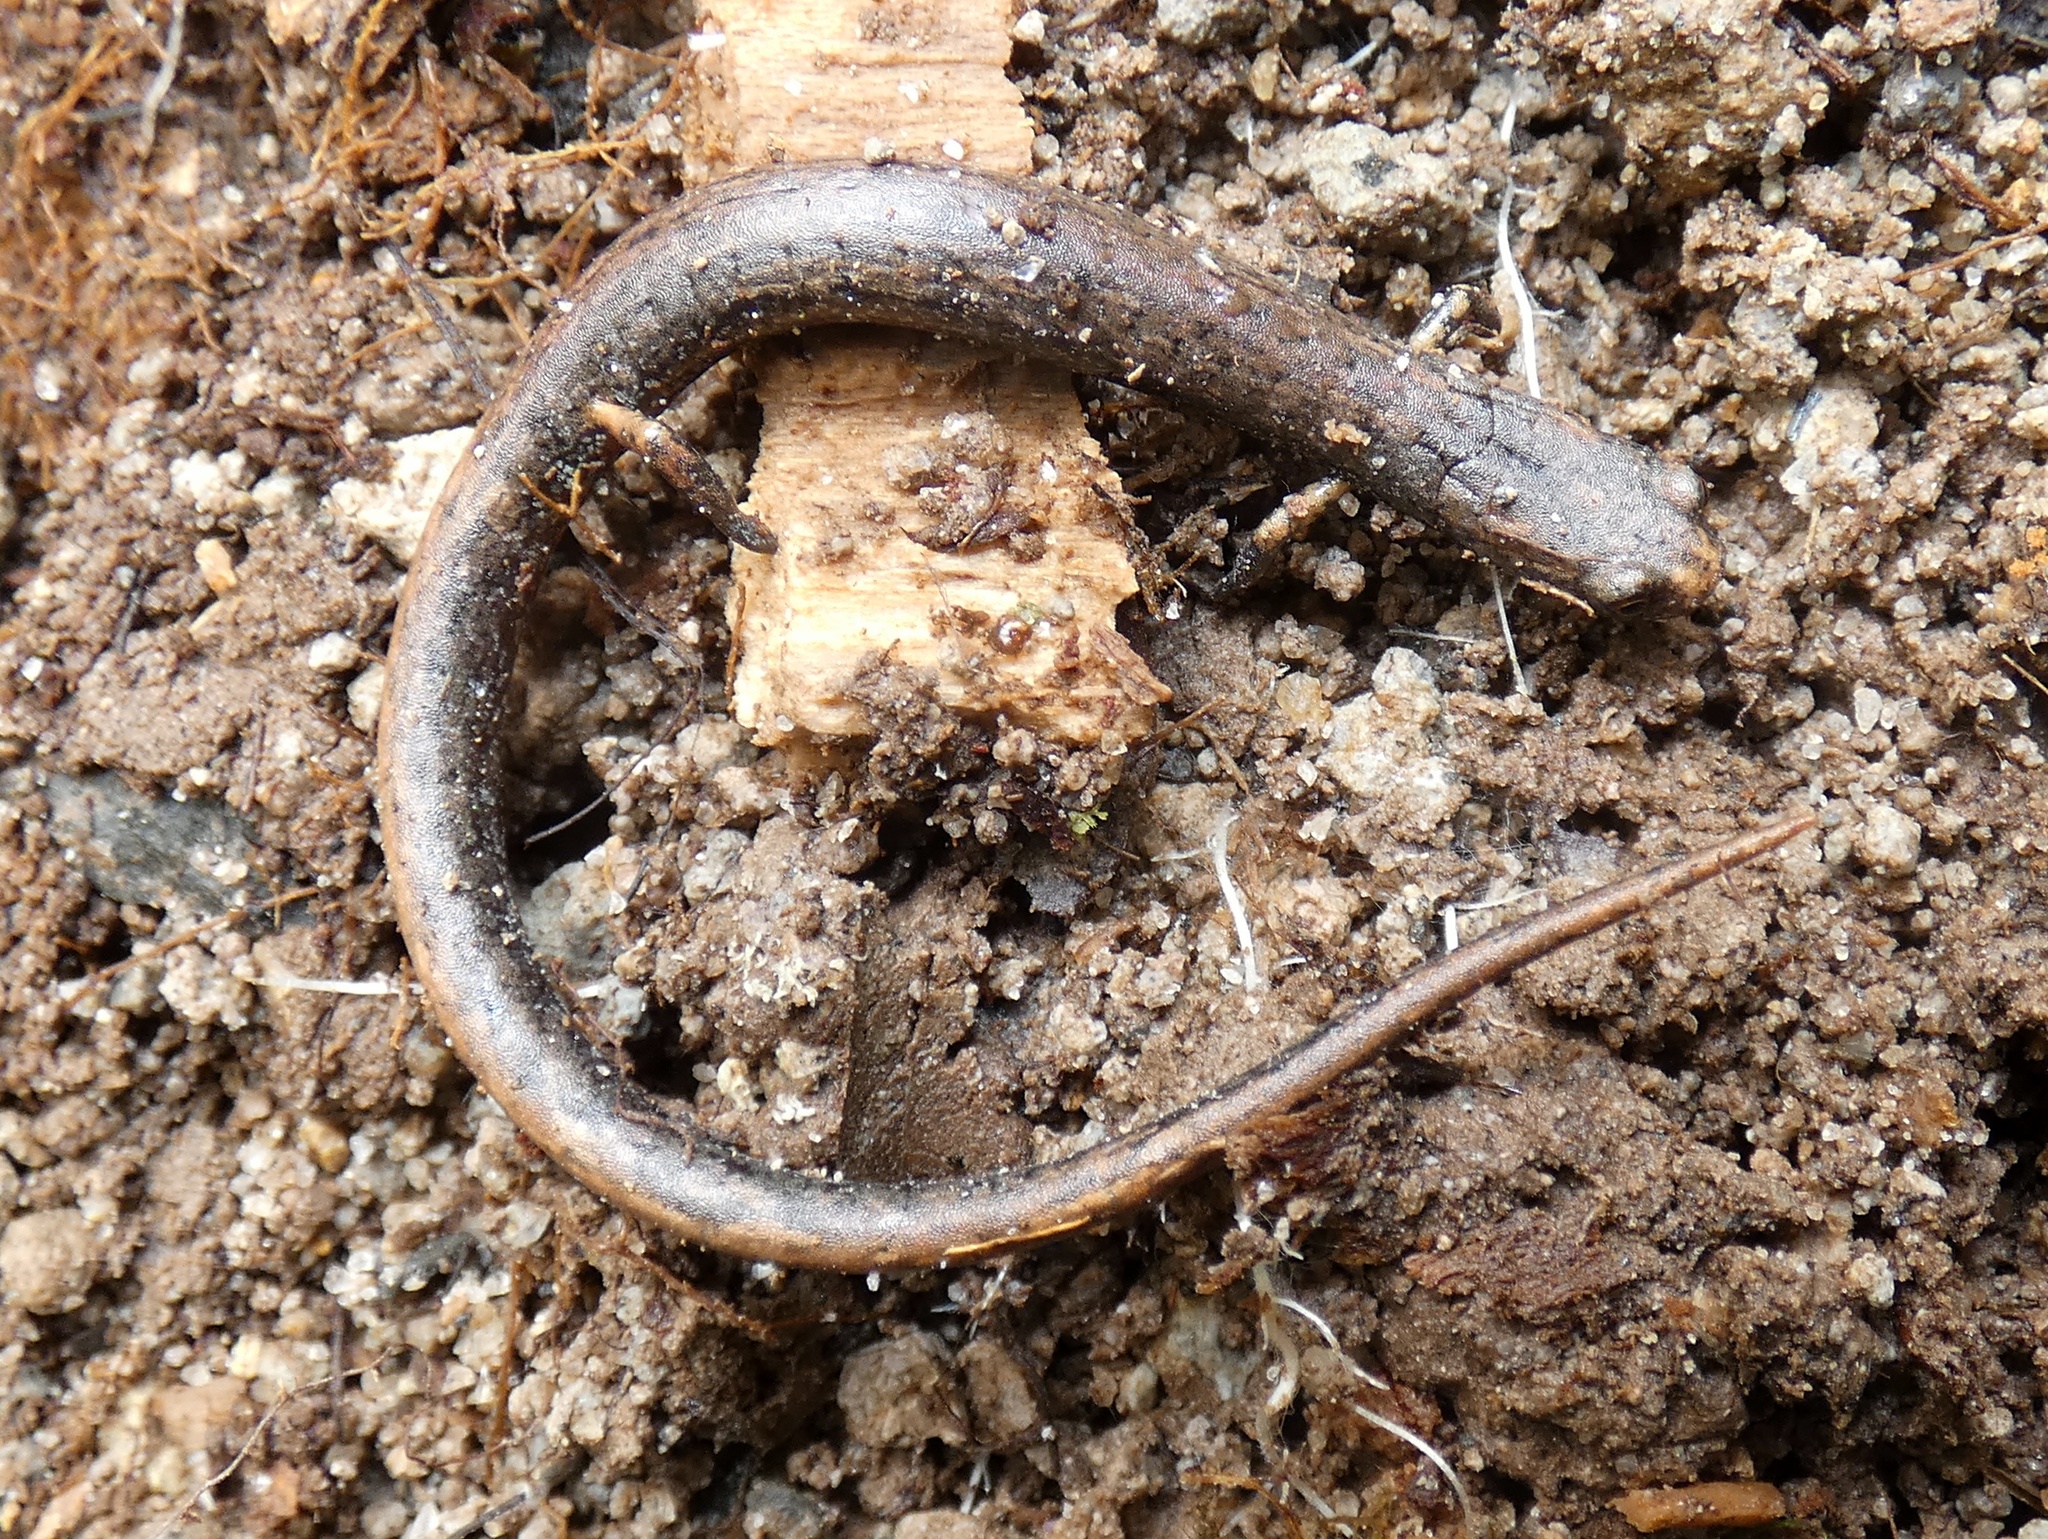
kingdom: Animalia
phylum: Chordata
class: Amphibia
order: Caudata
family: Plethodontidae
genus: Oedipina
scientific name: Oedipina
